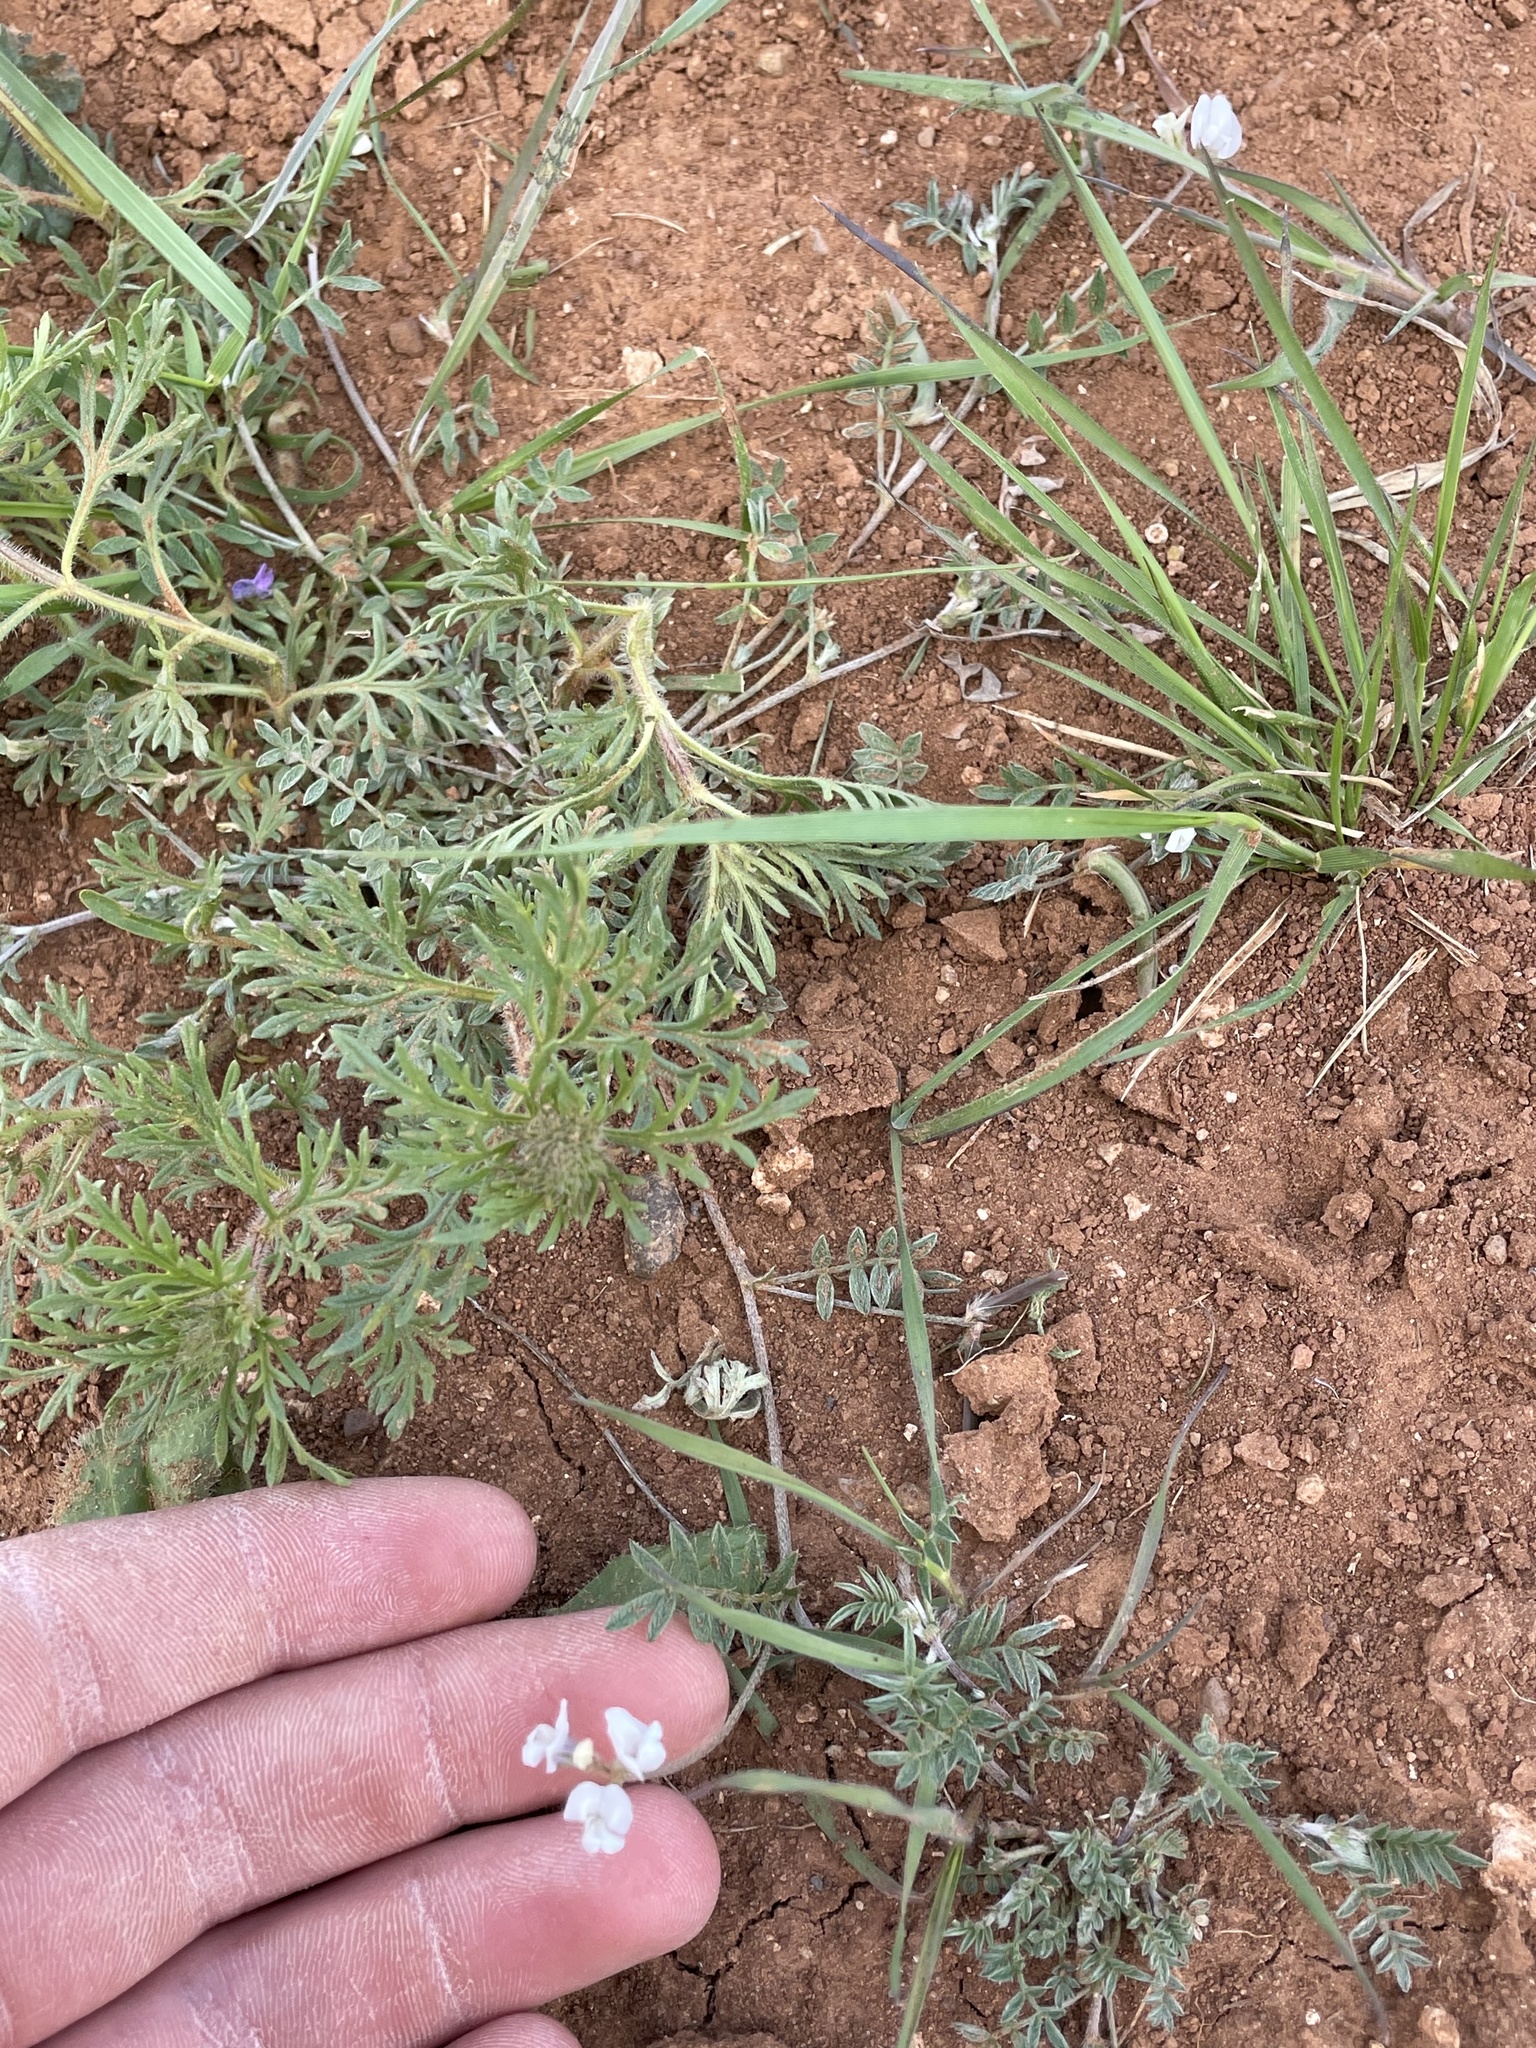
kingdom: Plantae
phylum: Tracheophyta
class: Magnoliopsida
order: Fabales
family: Fabaceae
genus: Astragalus
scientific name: Astragalus nuttallianus
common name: Smallflowered milkvetch
